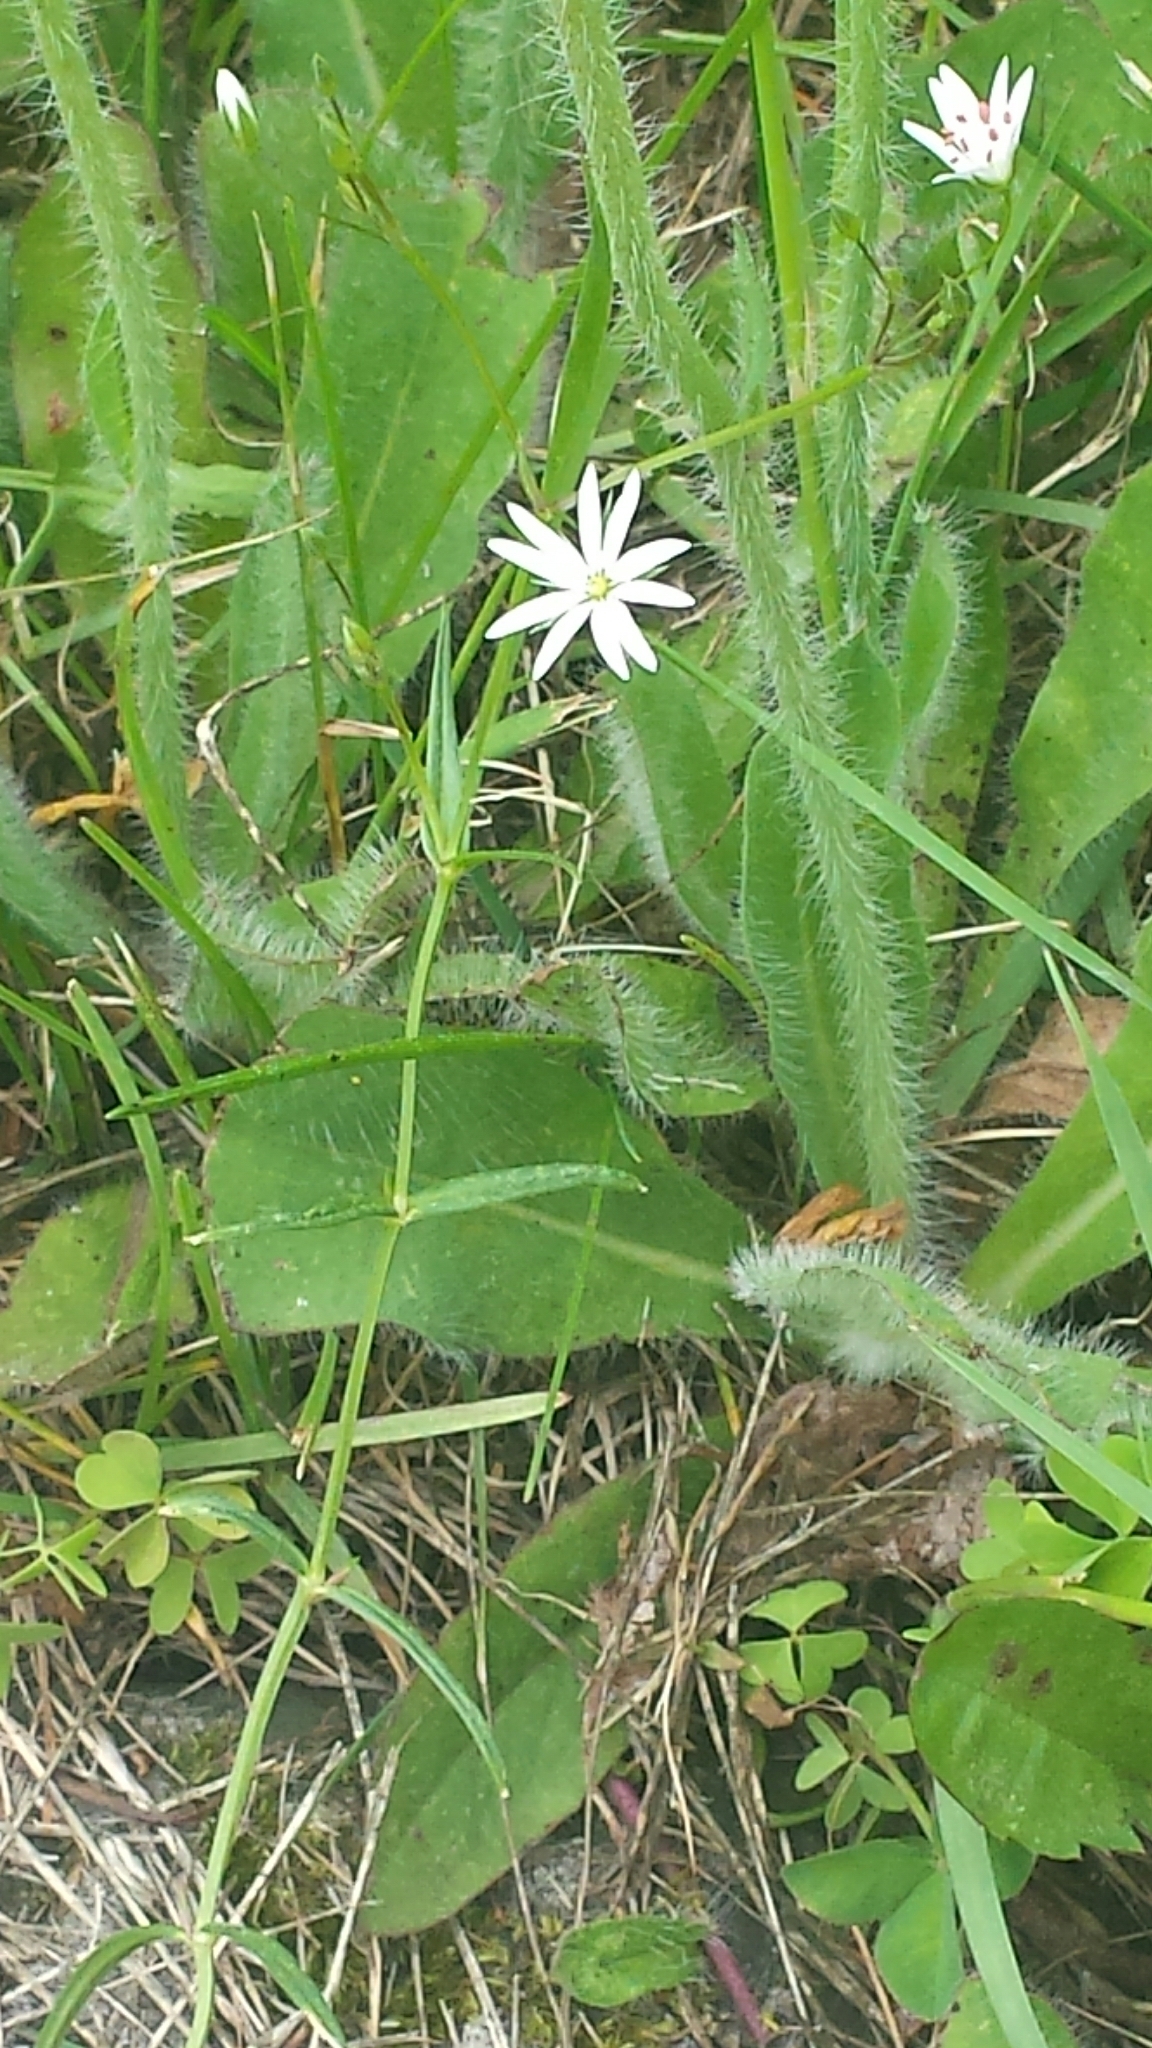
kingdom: Plantae
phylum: Tracheophyta
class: Magnoliopsida
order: Caryophyllales
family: Caryophyllaceae
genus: Stellaria
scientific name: Stellaria graminea
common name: Grass-like starwort
